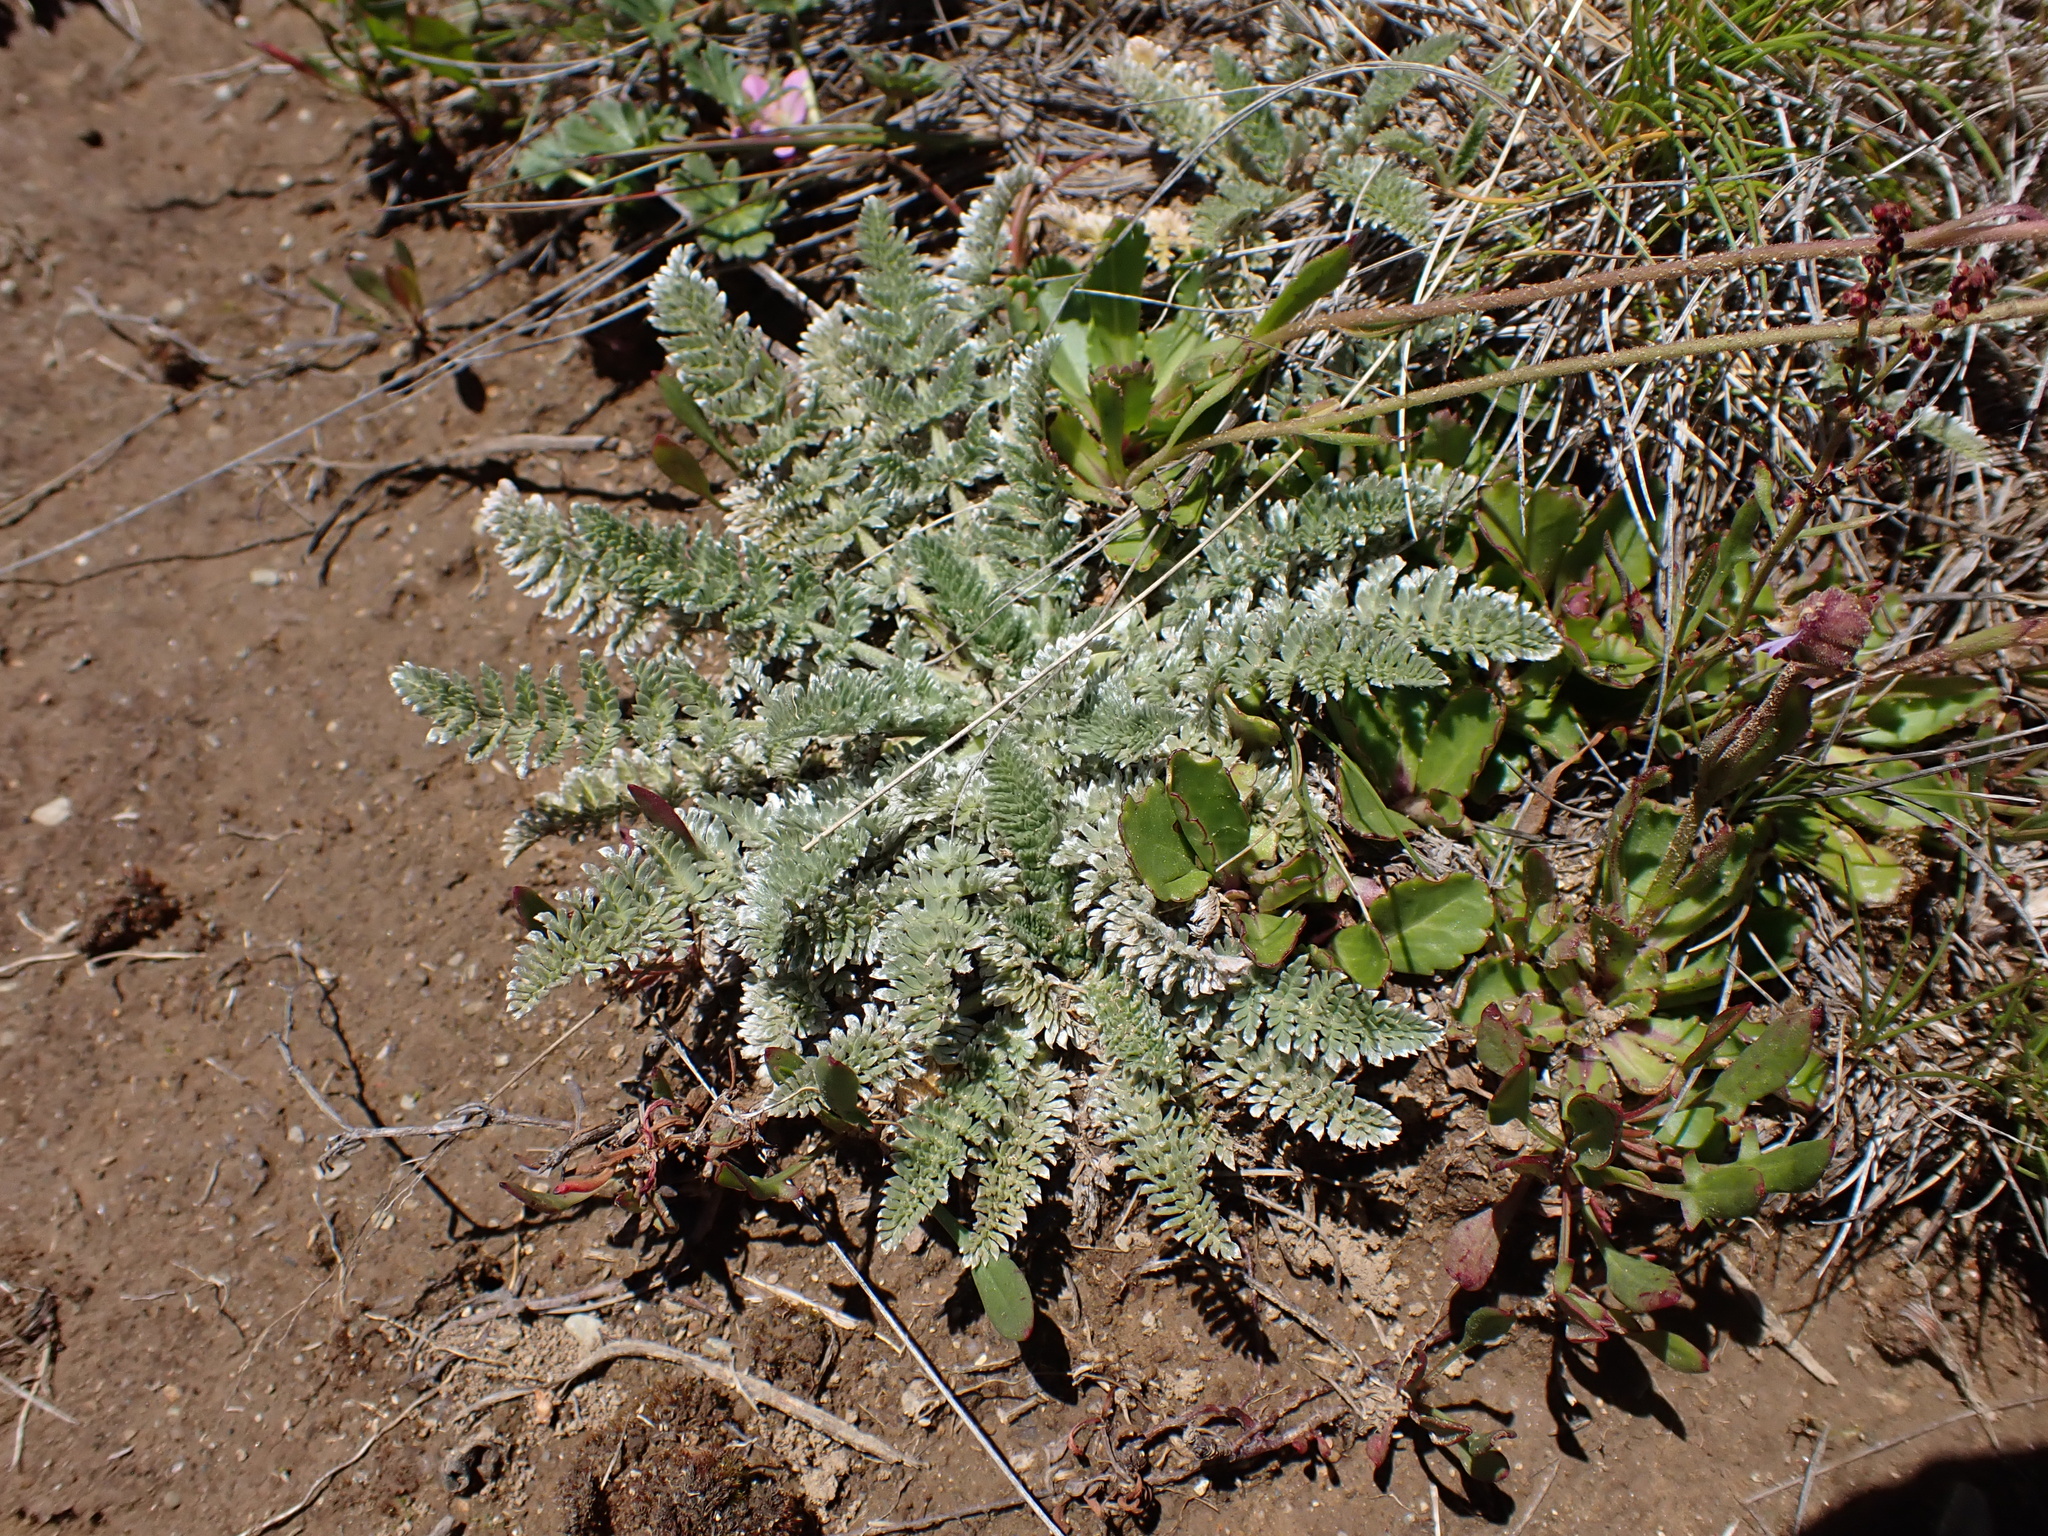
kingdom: Plantae
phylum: Tracheophyta
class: Magnoliopsida
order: Apiales
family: Apiaceae
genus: Chaerophyllum
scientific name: Chaerophyllum argenteum
